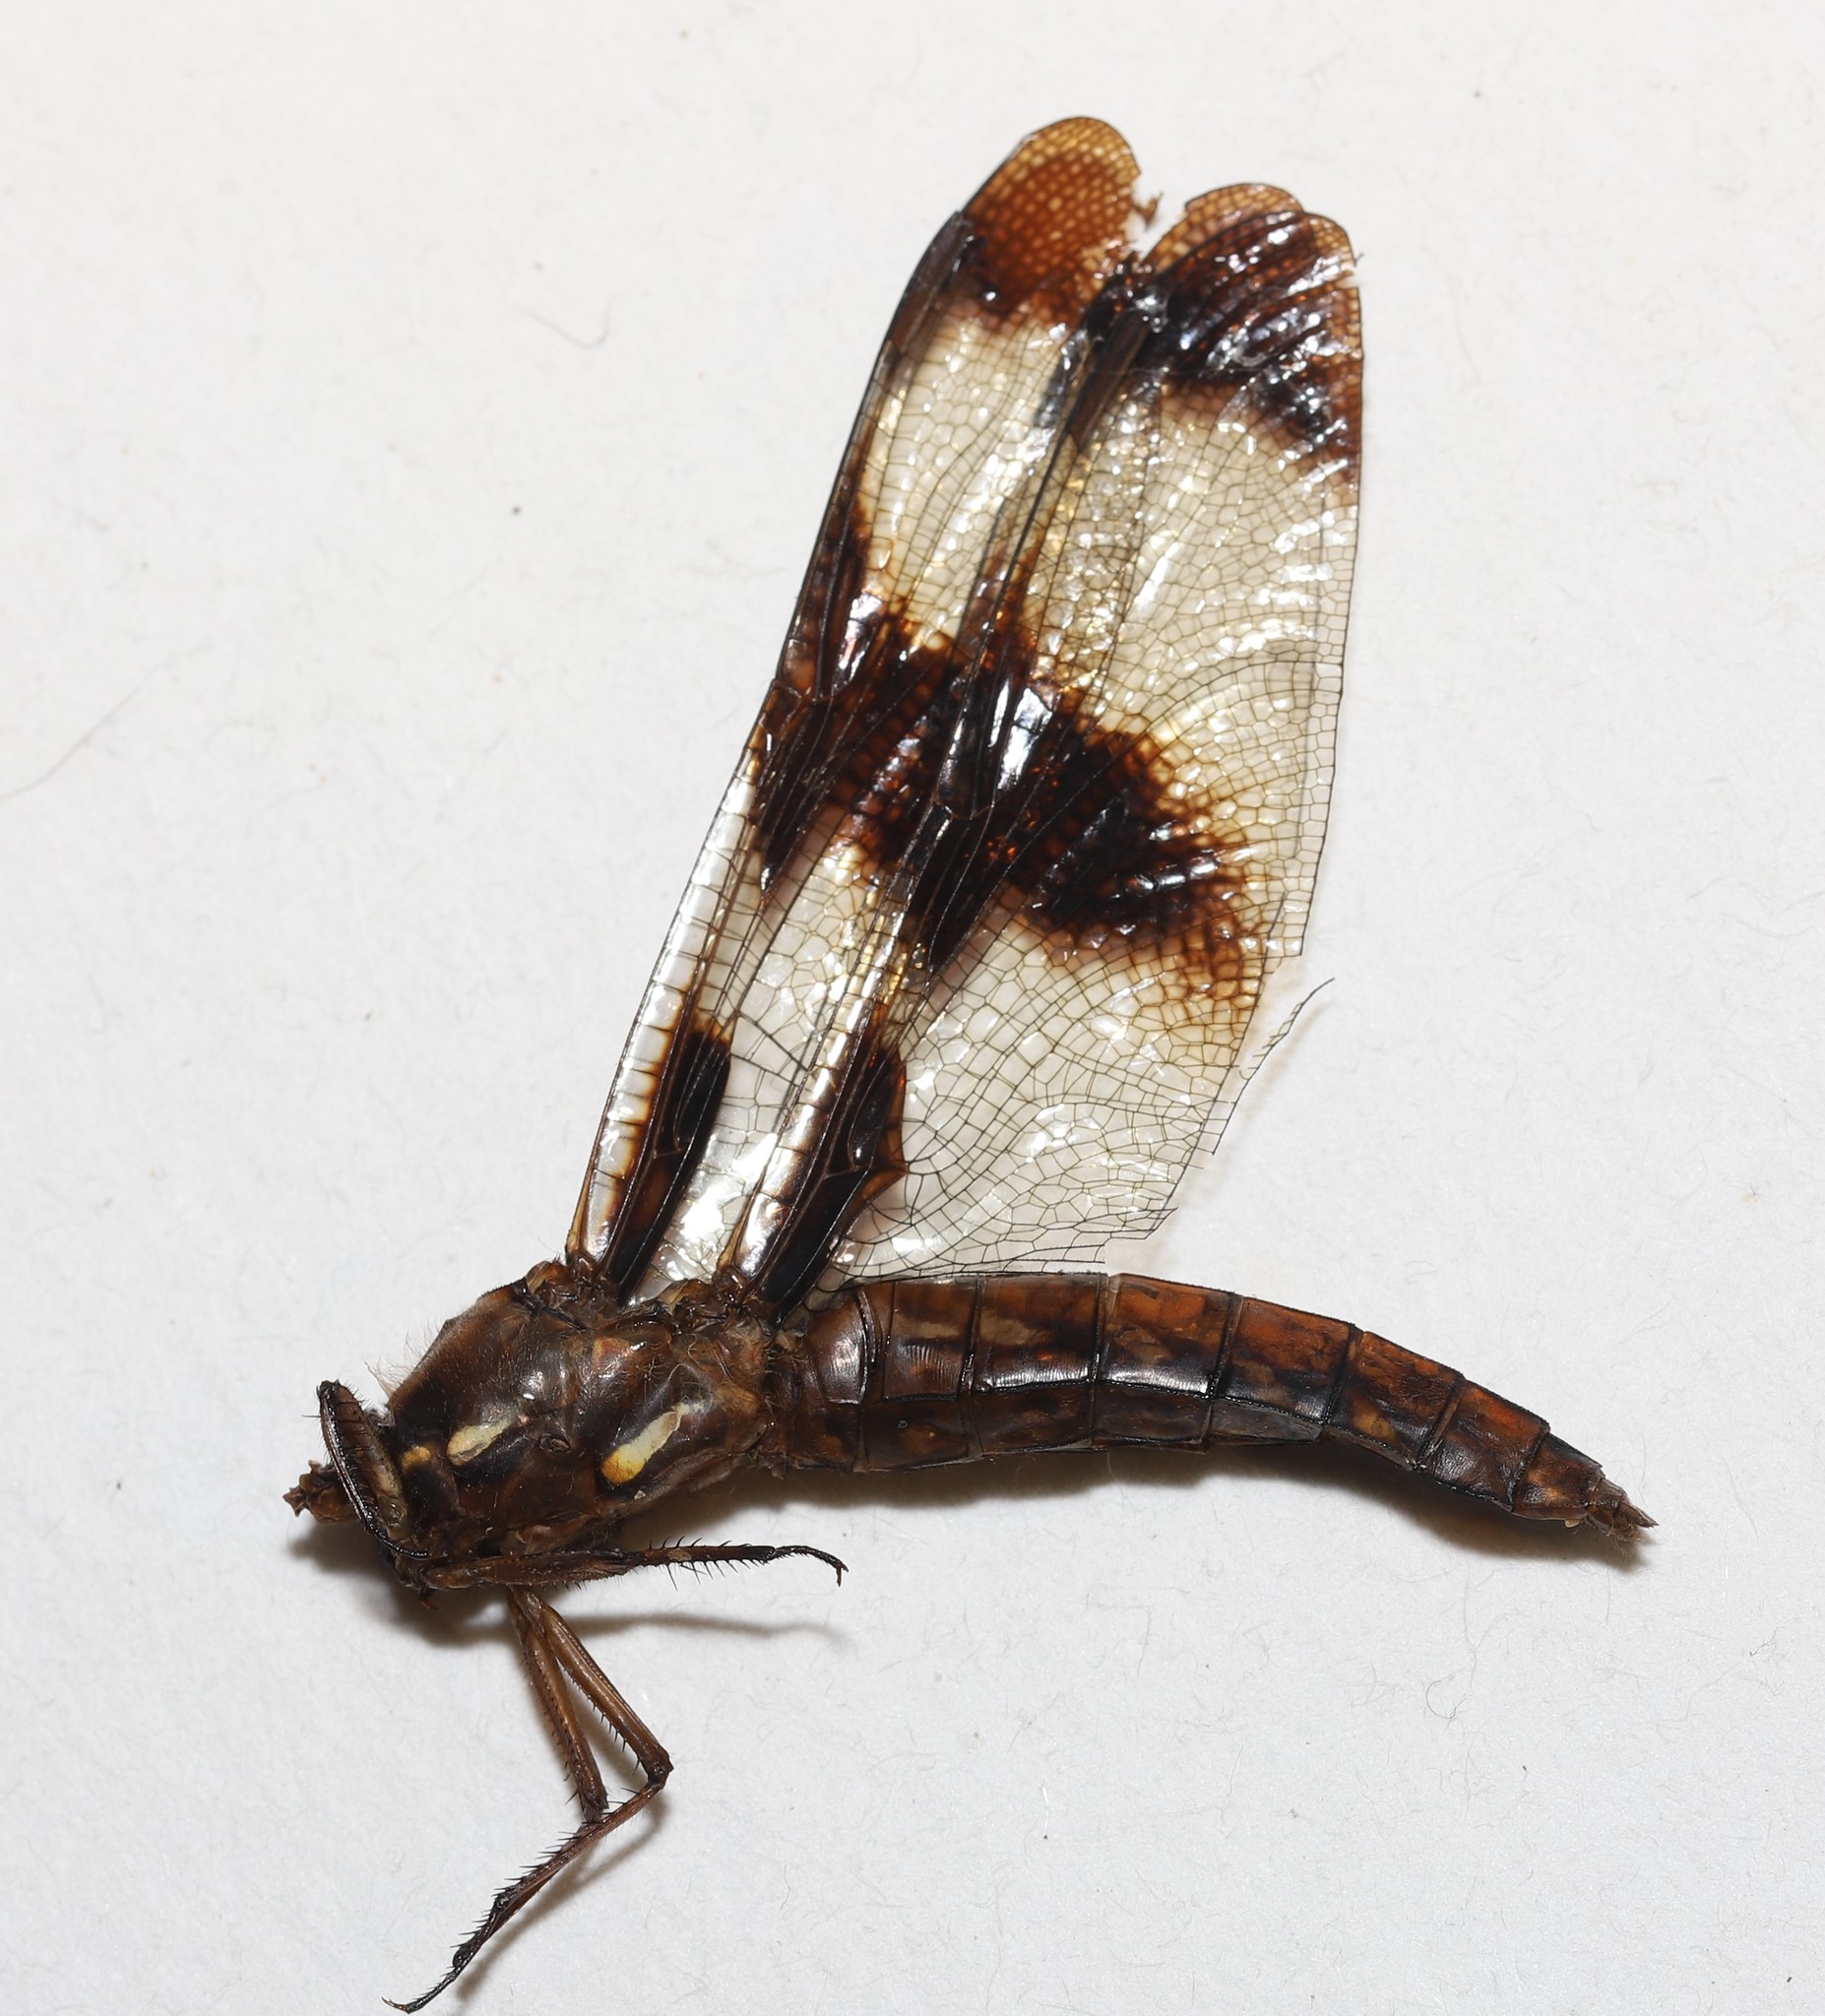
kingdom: Animalia
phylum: Arthropoda
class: Insecta
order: Odonata
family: Libellulidae
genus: Plathemis
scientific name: Plathemis lydia
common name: Common whitetail
